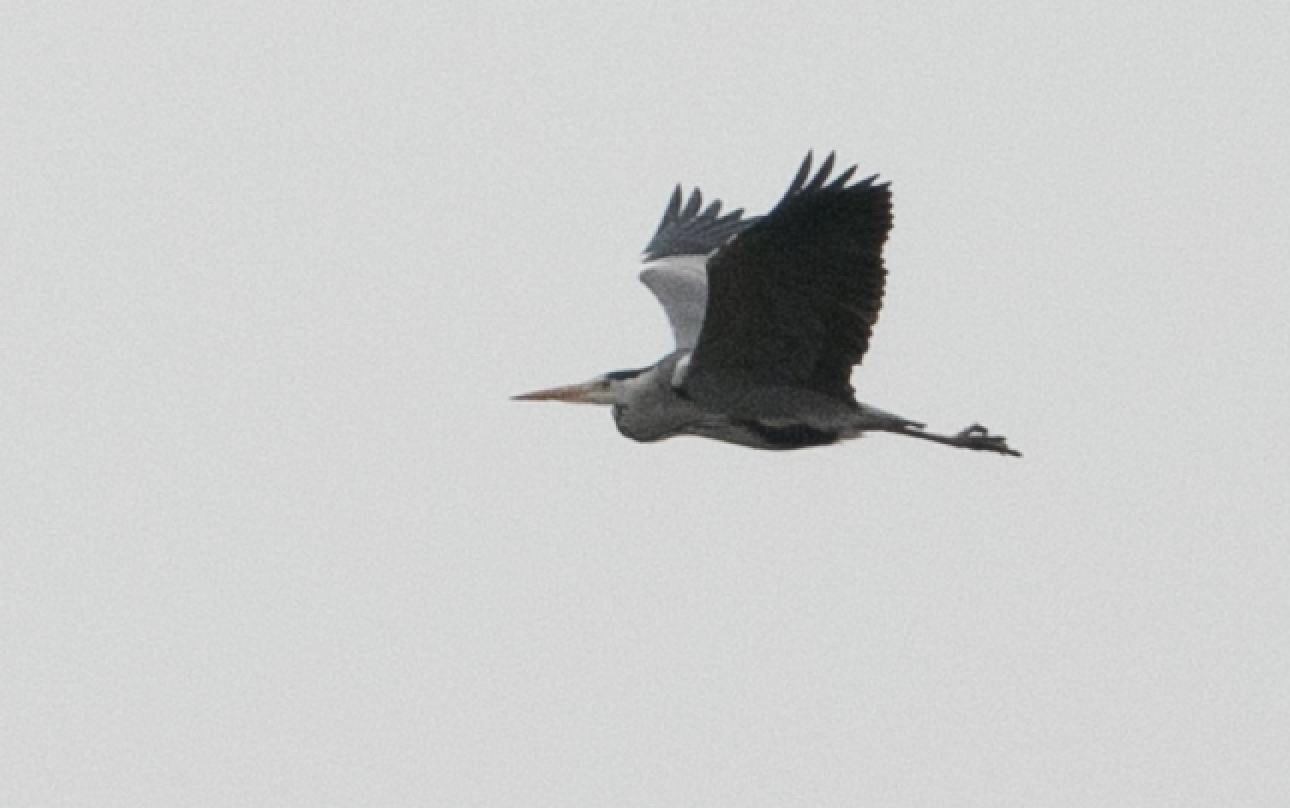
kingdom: Animalia
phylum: Chordata
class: Aves
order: Pelecaniformes
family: Ardeidae
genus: Ardea
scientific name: Ardea cinerea
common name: Grey heron
